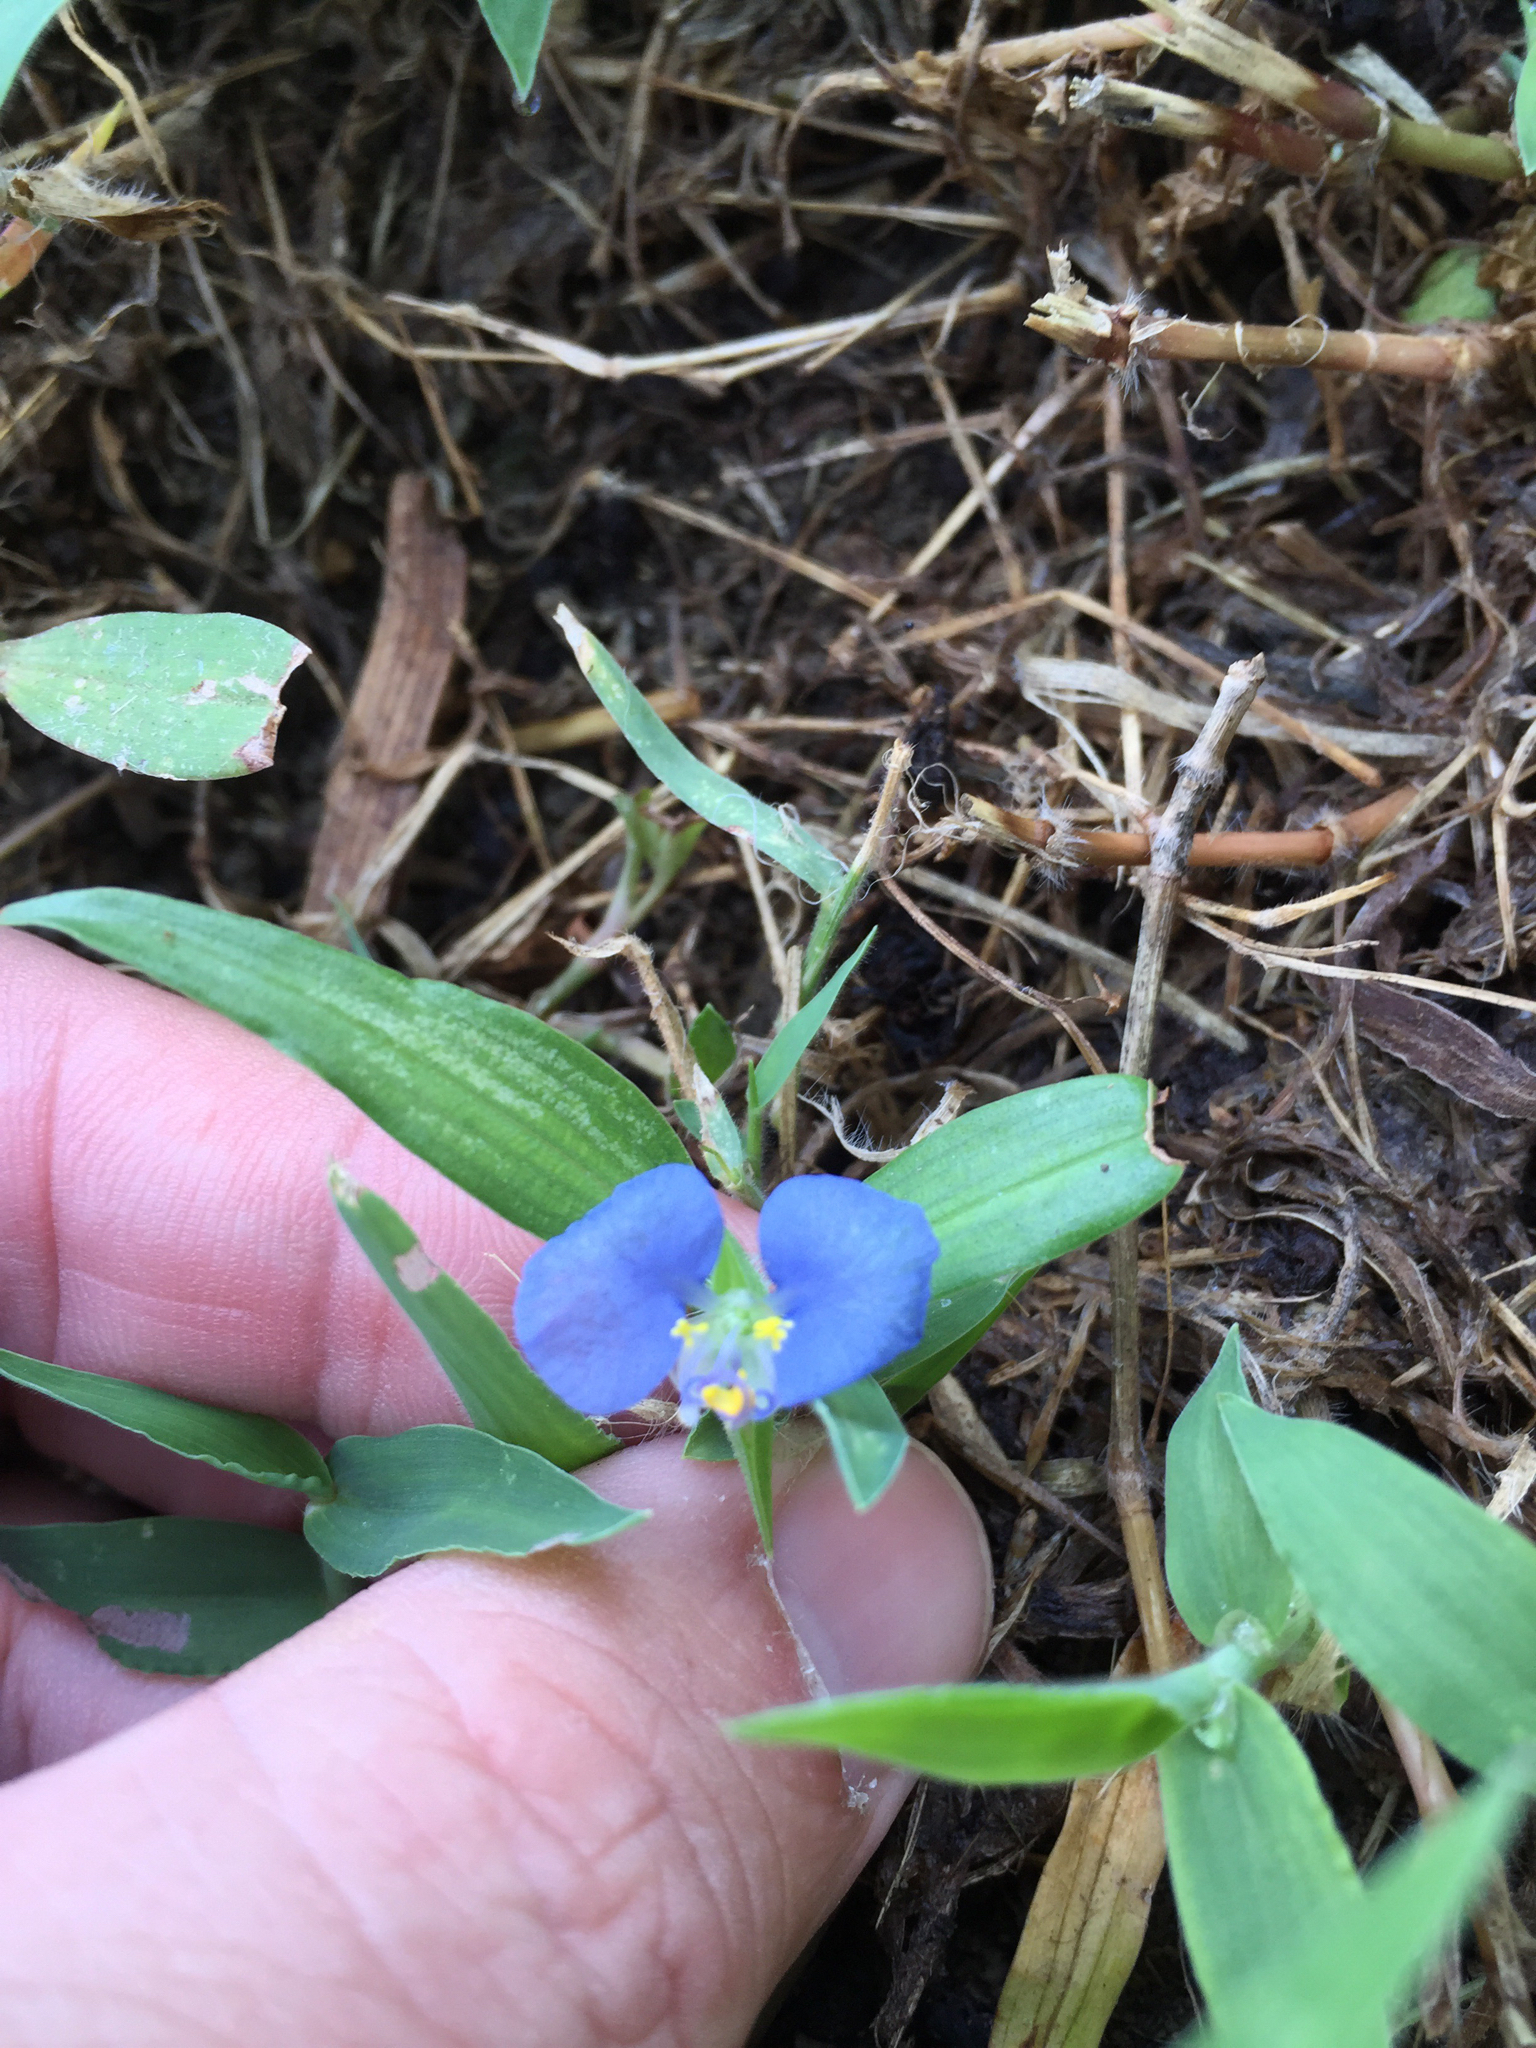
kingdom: Plantae
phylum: Tracheophyta
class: Liliopsida
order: Commelinales
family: Commelinaceae
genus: Commelina
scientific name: Commelina erecta
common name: Blousel blommetjie
